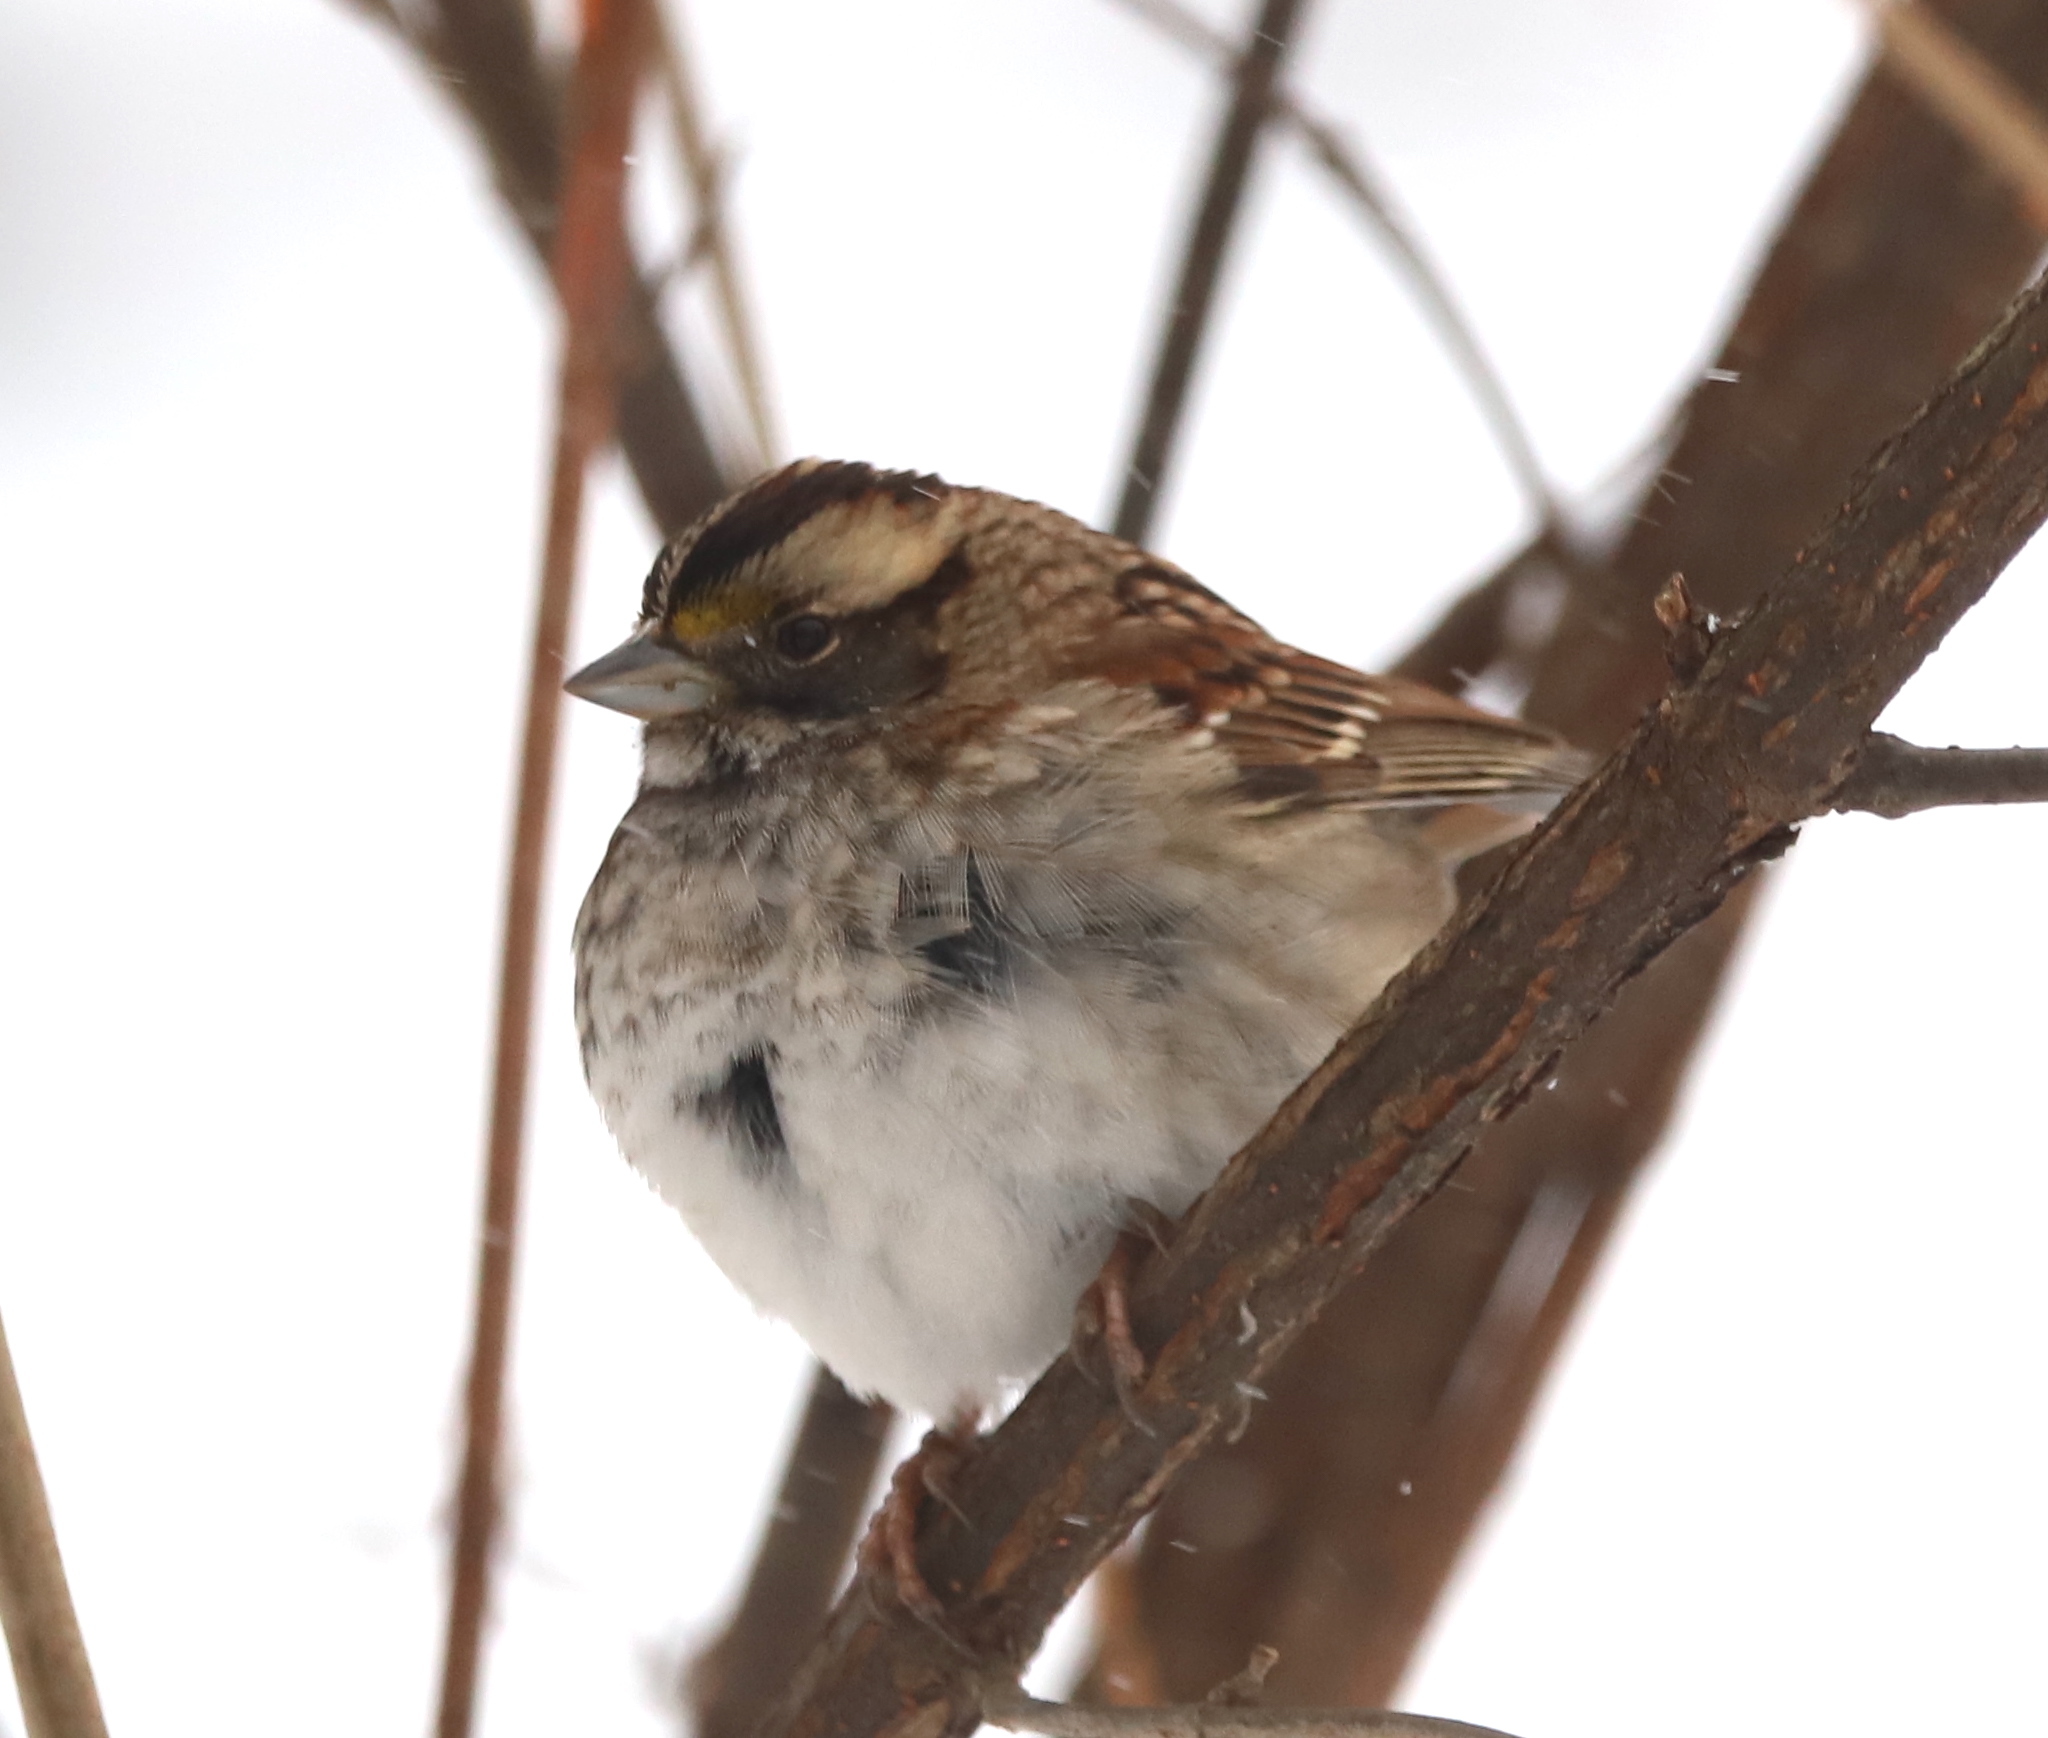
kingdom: Animalia
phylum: Chordata
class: Aves
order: Passeriformes
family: Passerellidae
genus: Zonotrichia
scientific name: Zonotrichia albicollis
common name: White-throated sparrow
